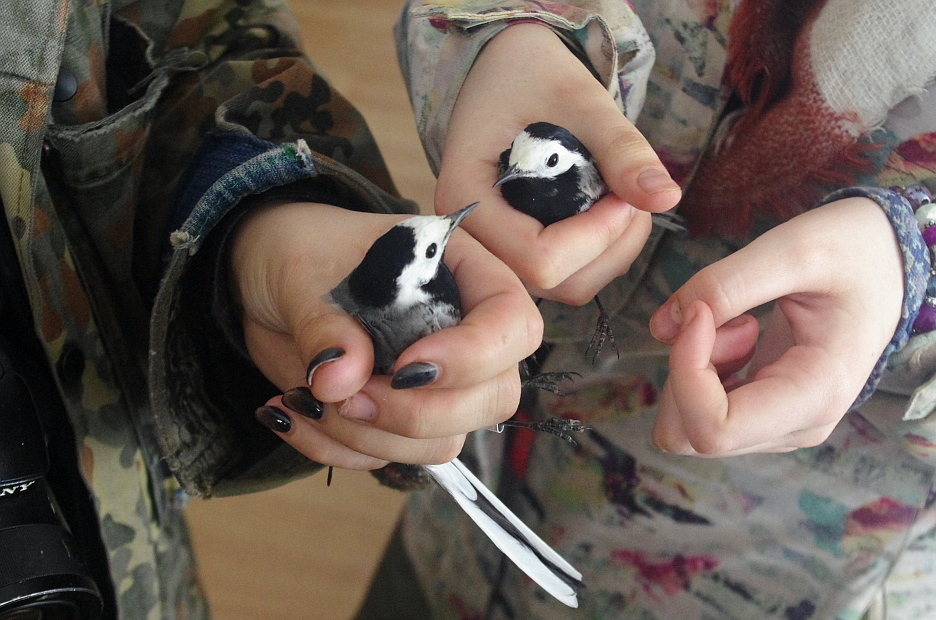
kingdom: Animalia
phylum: Chordata
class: Aves
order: Passeriformes
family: Motacillidae
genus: Motacilla
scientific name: Motacilla alba
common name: White wagtail
